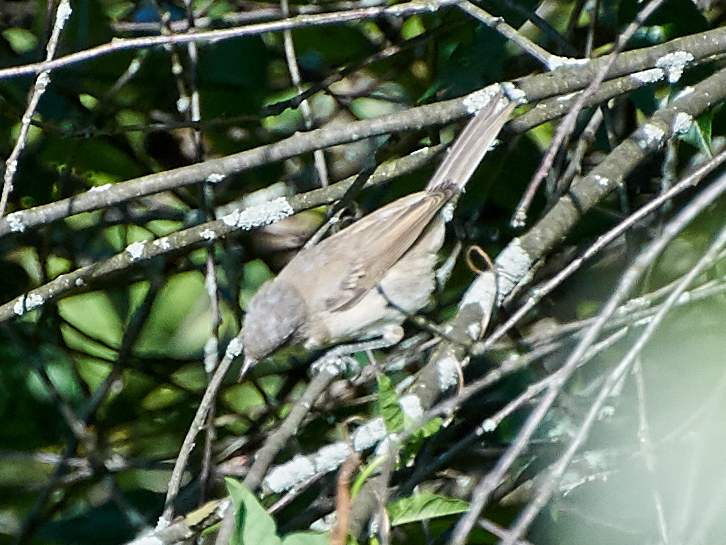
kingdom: Animalia
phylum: Chordata
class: Aves
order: Passeriformes
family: Sylviidae
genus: Sylvia
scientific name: Sylvia curruca
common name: Lesser whitethroat
